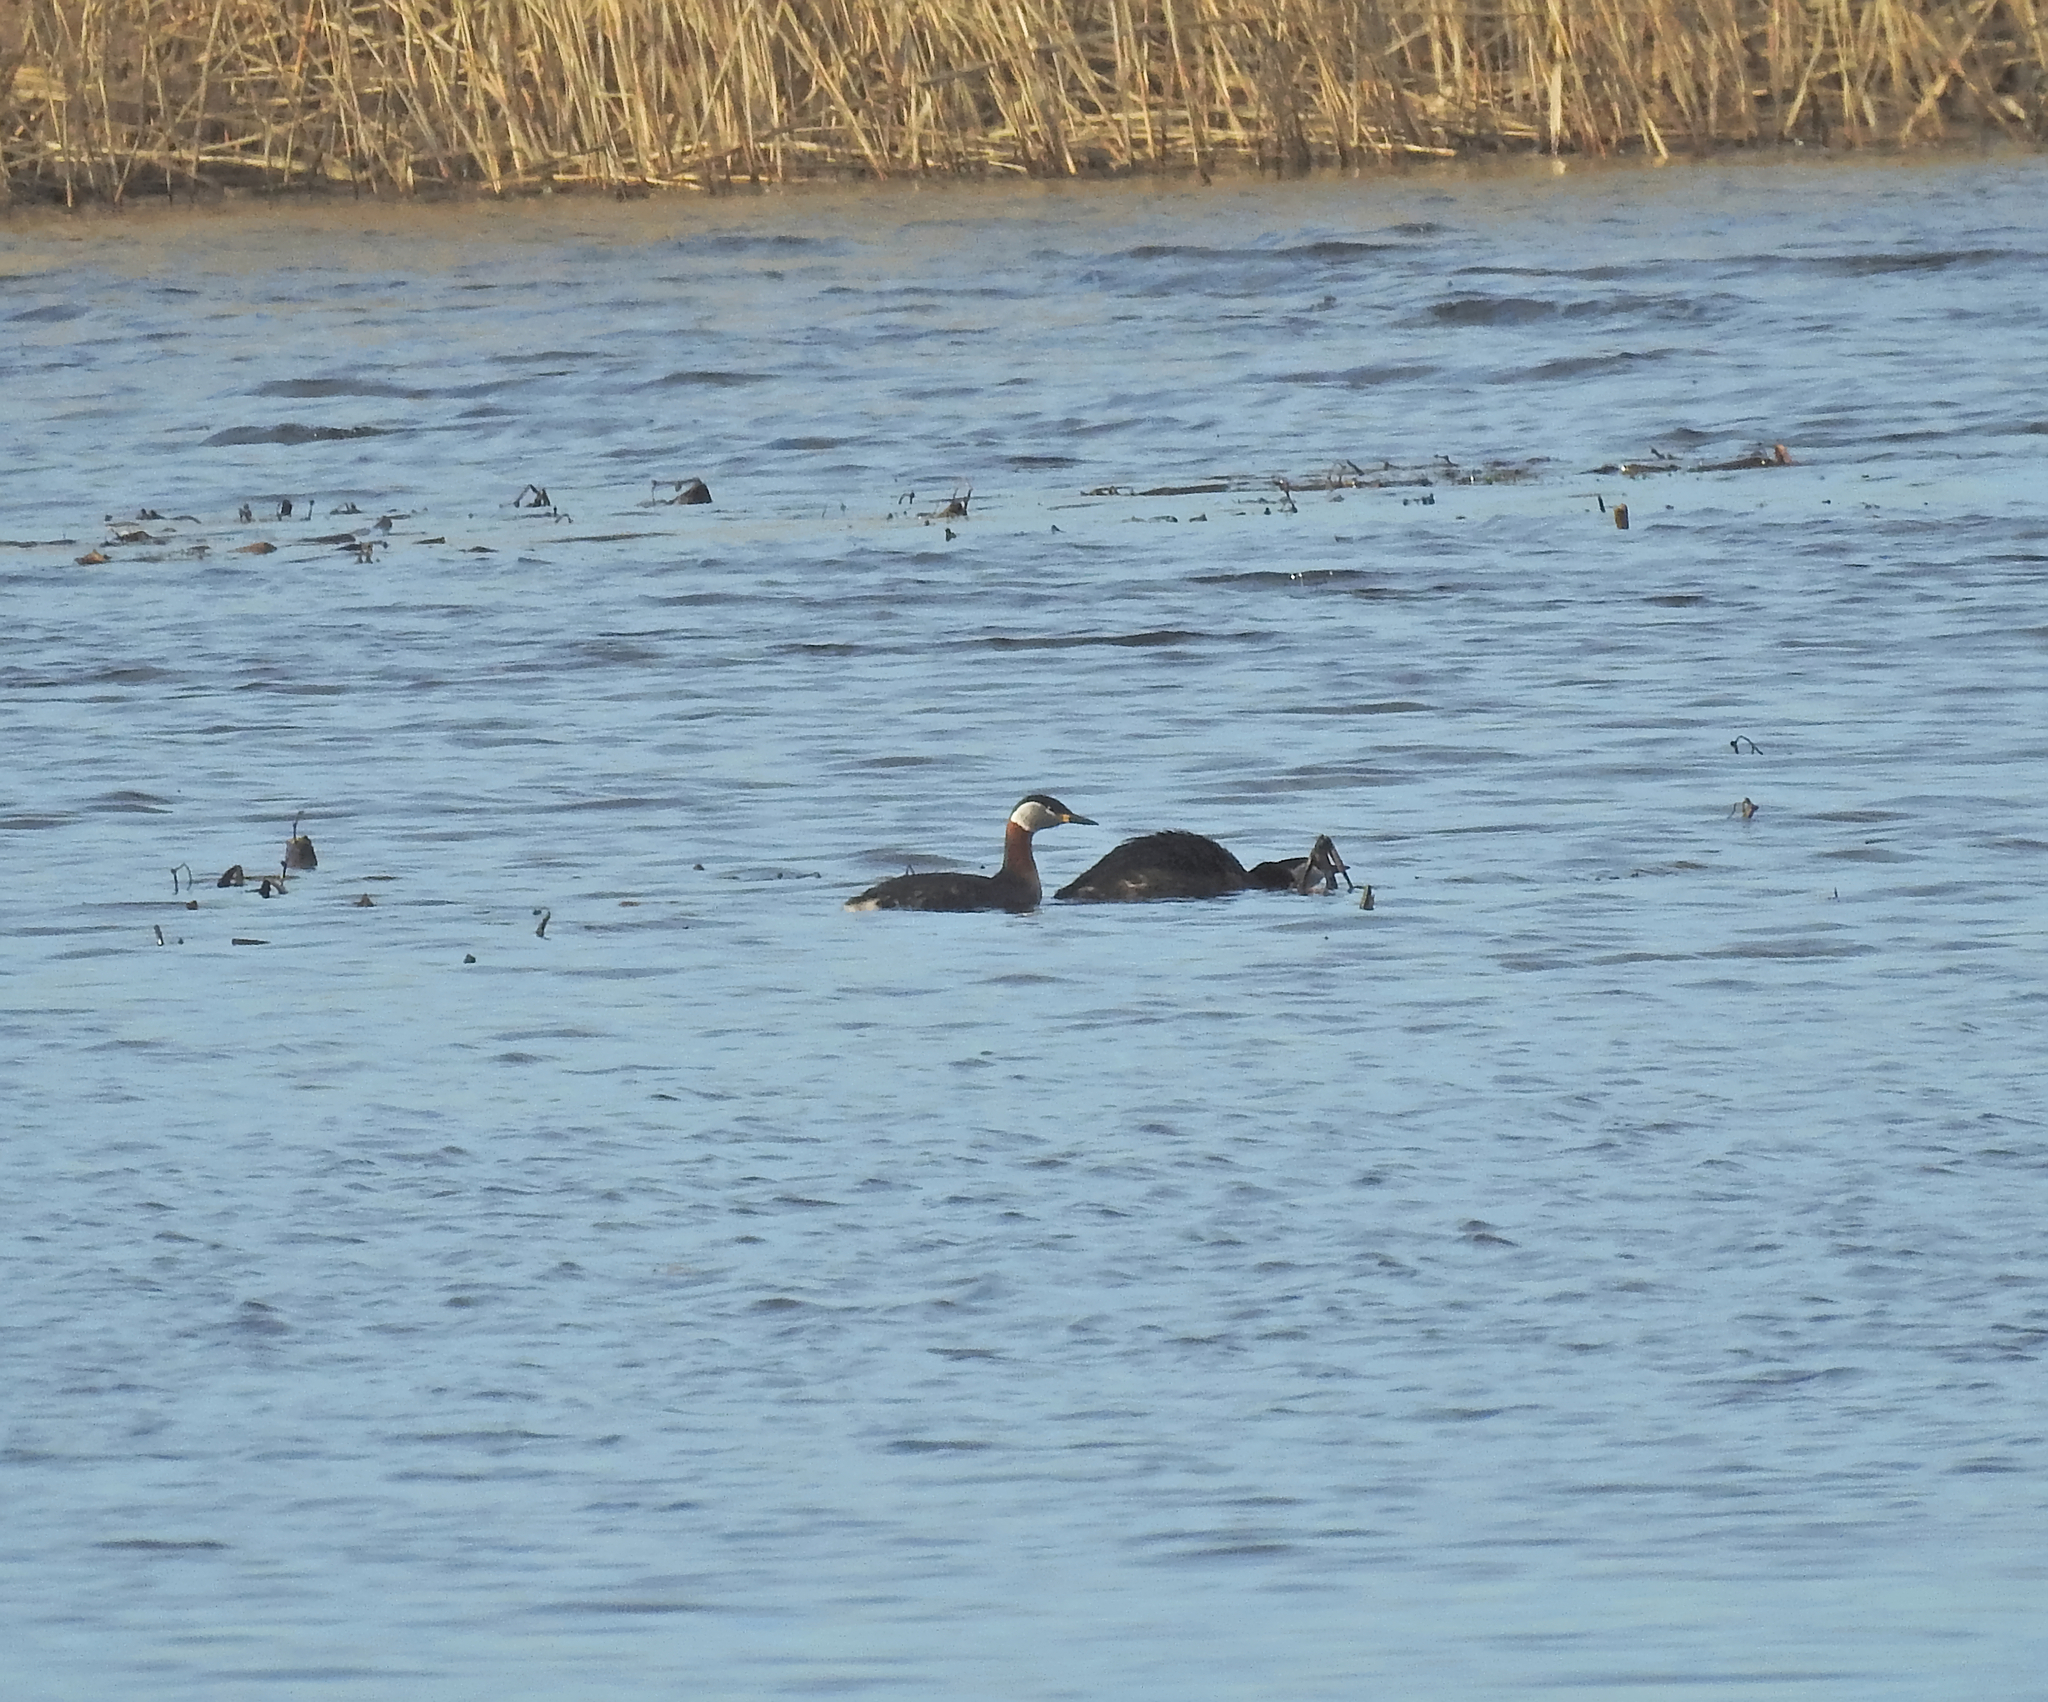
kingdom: Animalia
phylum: Chordata
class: Aves
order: Podicipediformes
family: Podicipedidae
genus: Podiceps
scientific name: Podiceps grisegena
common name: Red-necked grebe
